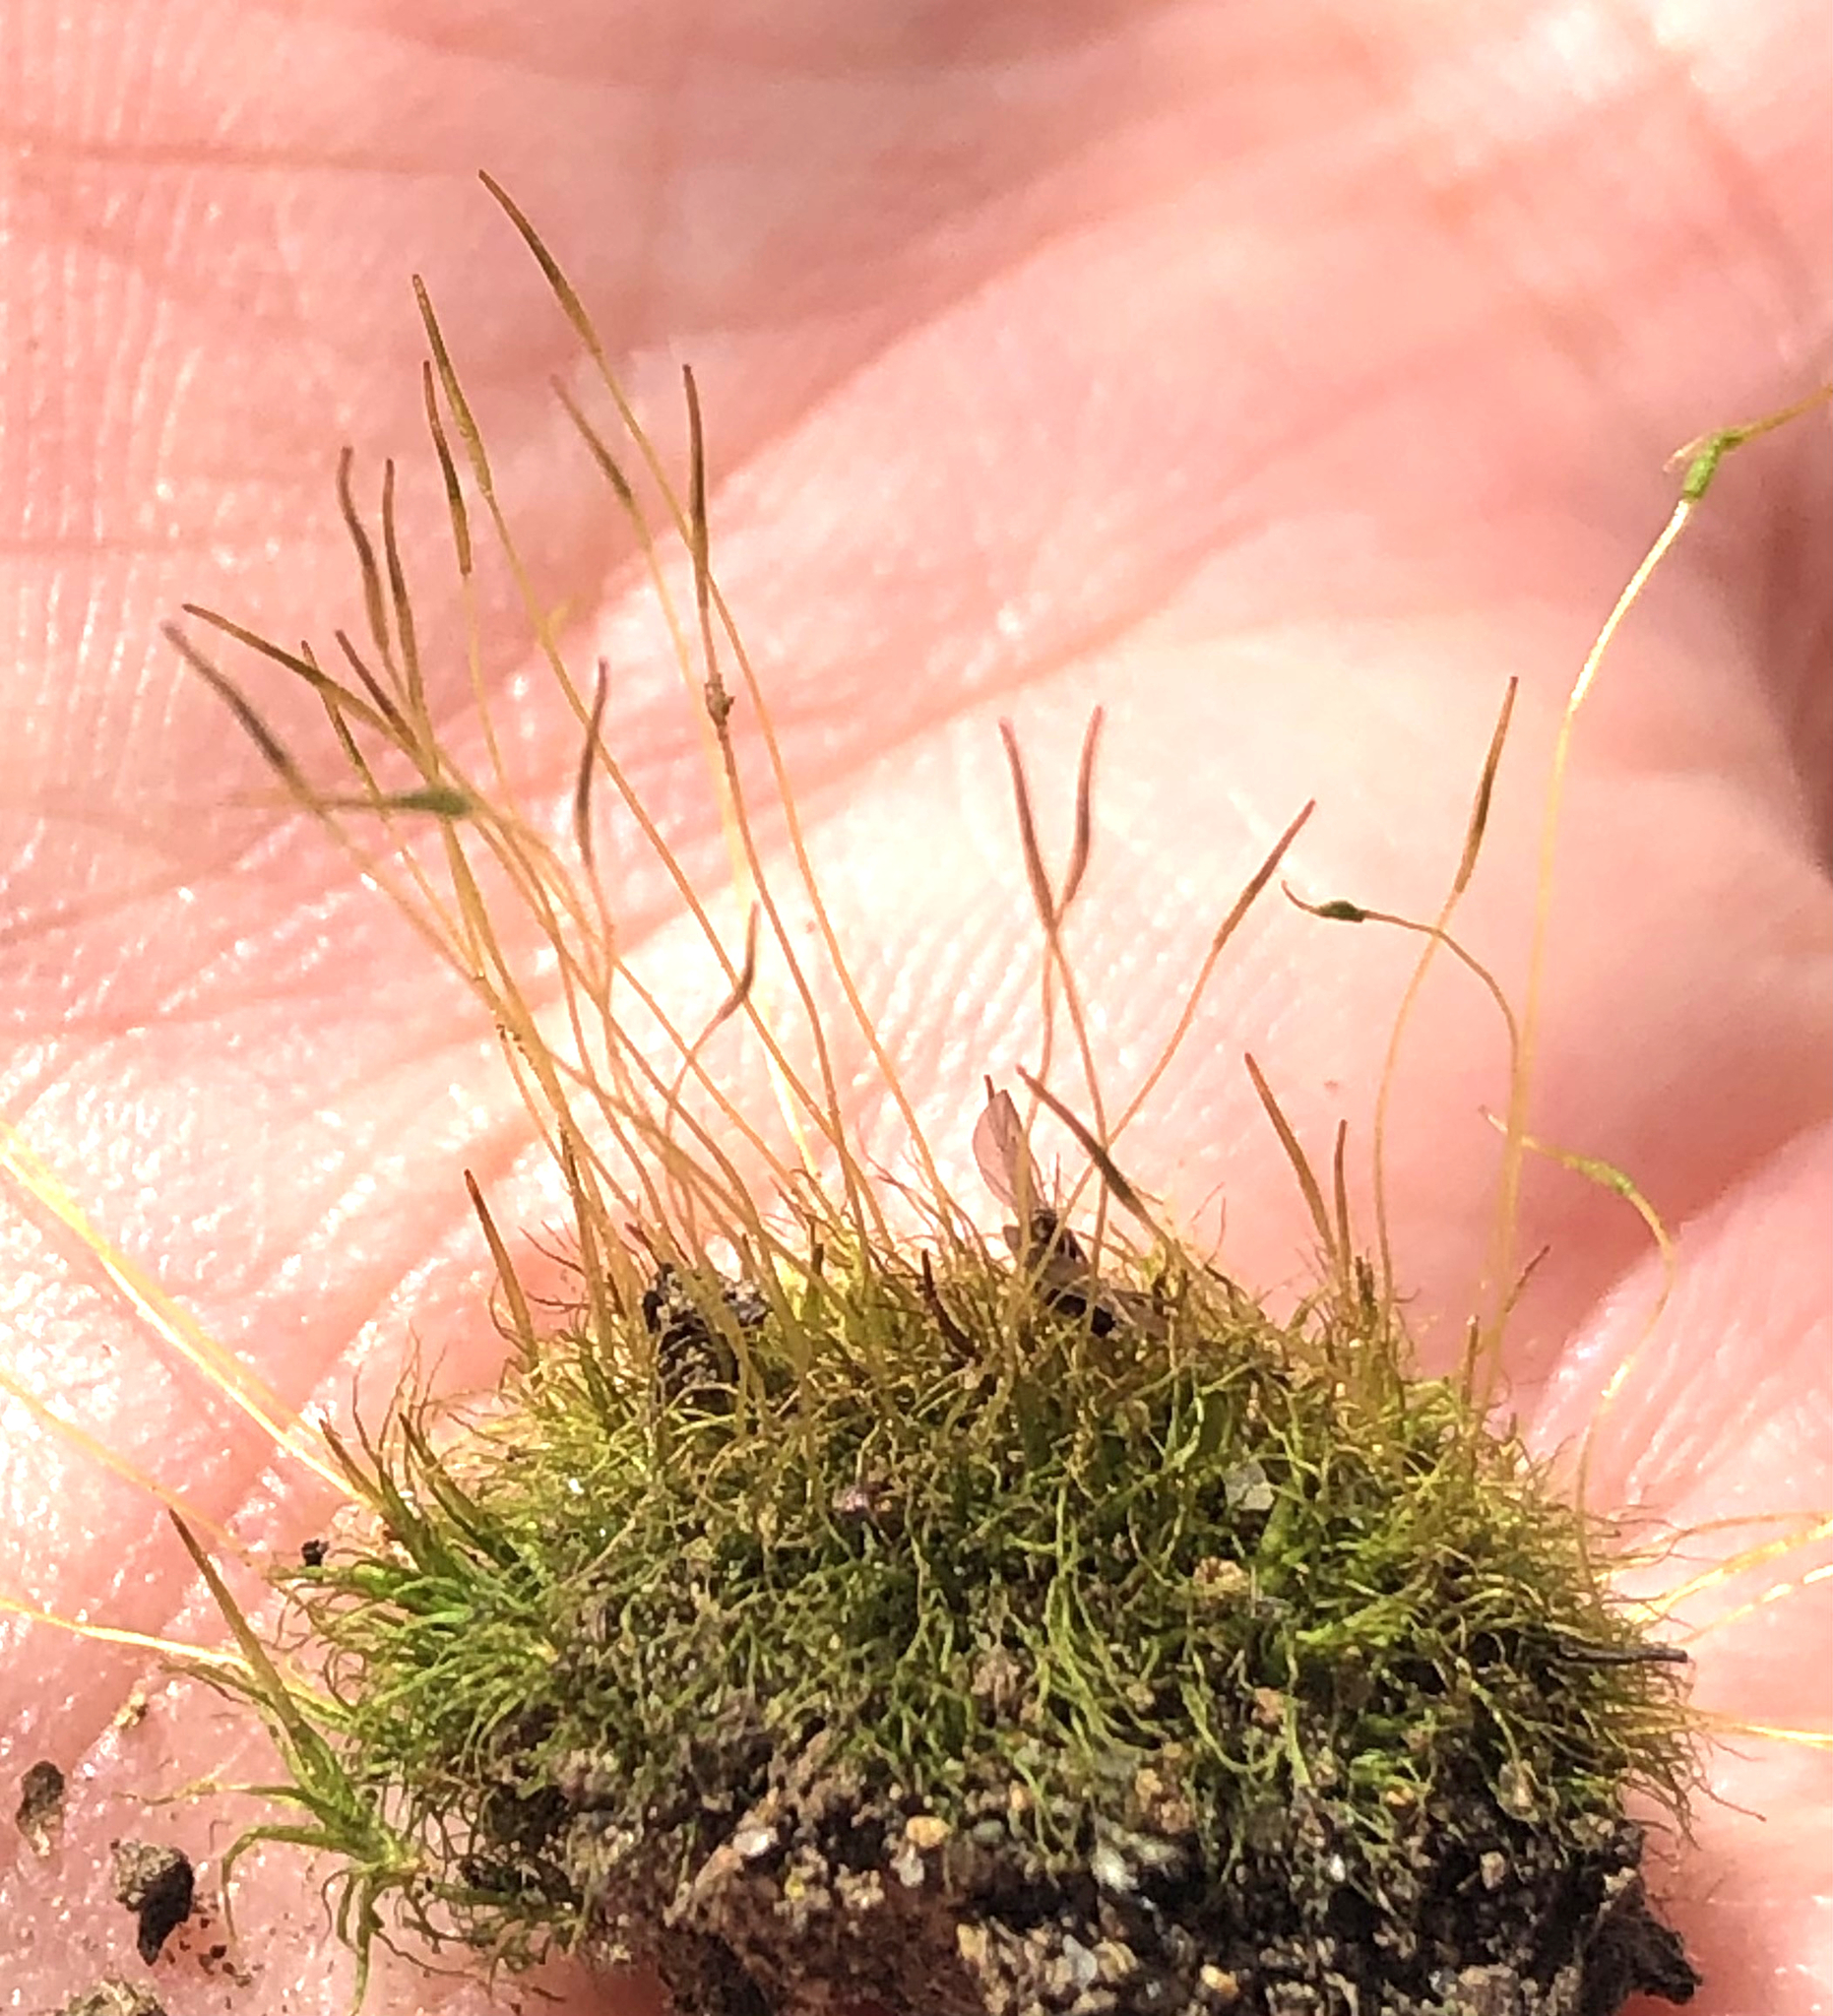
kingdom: Plantae
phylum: Bryophyta
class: Bryopsida
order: Dicranales
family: Ditrichaceae
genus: Ditrichum
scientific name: Ditrichum pallidum
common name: Pale cow-hair moss
